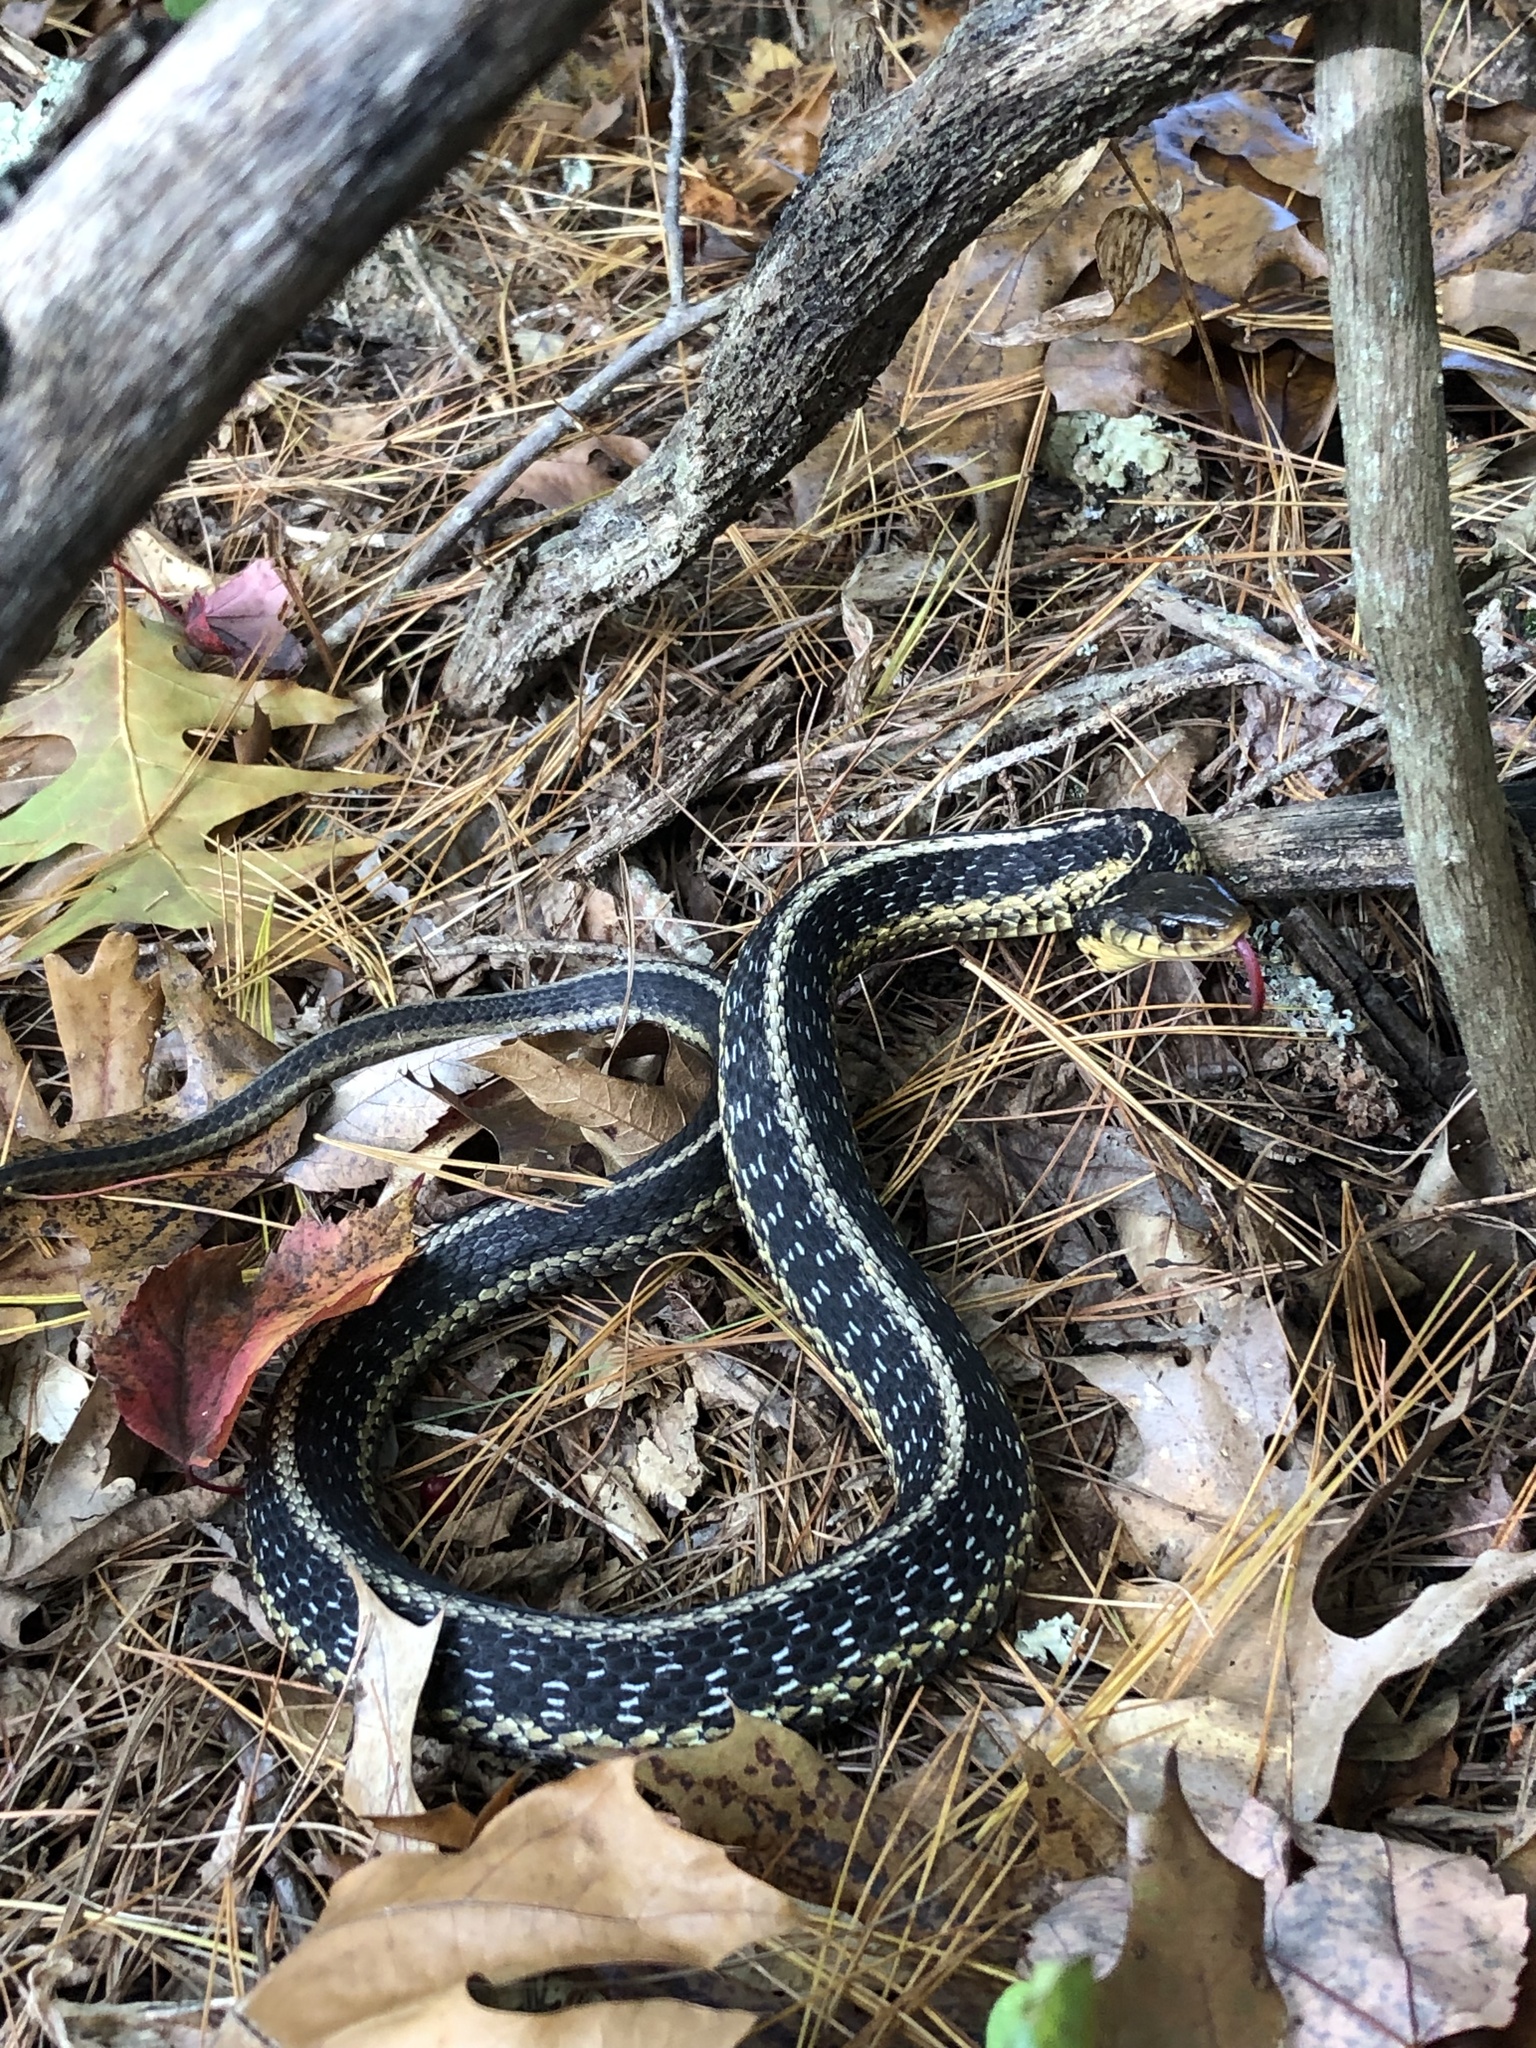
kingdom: Animalia
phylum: Chordata
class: Squamata
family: Colubridae
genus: Thamnophis
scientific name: Thamnophis sirtalis
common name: Common garter snake
